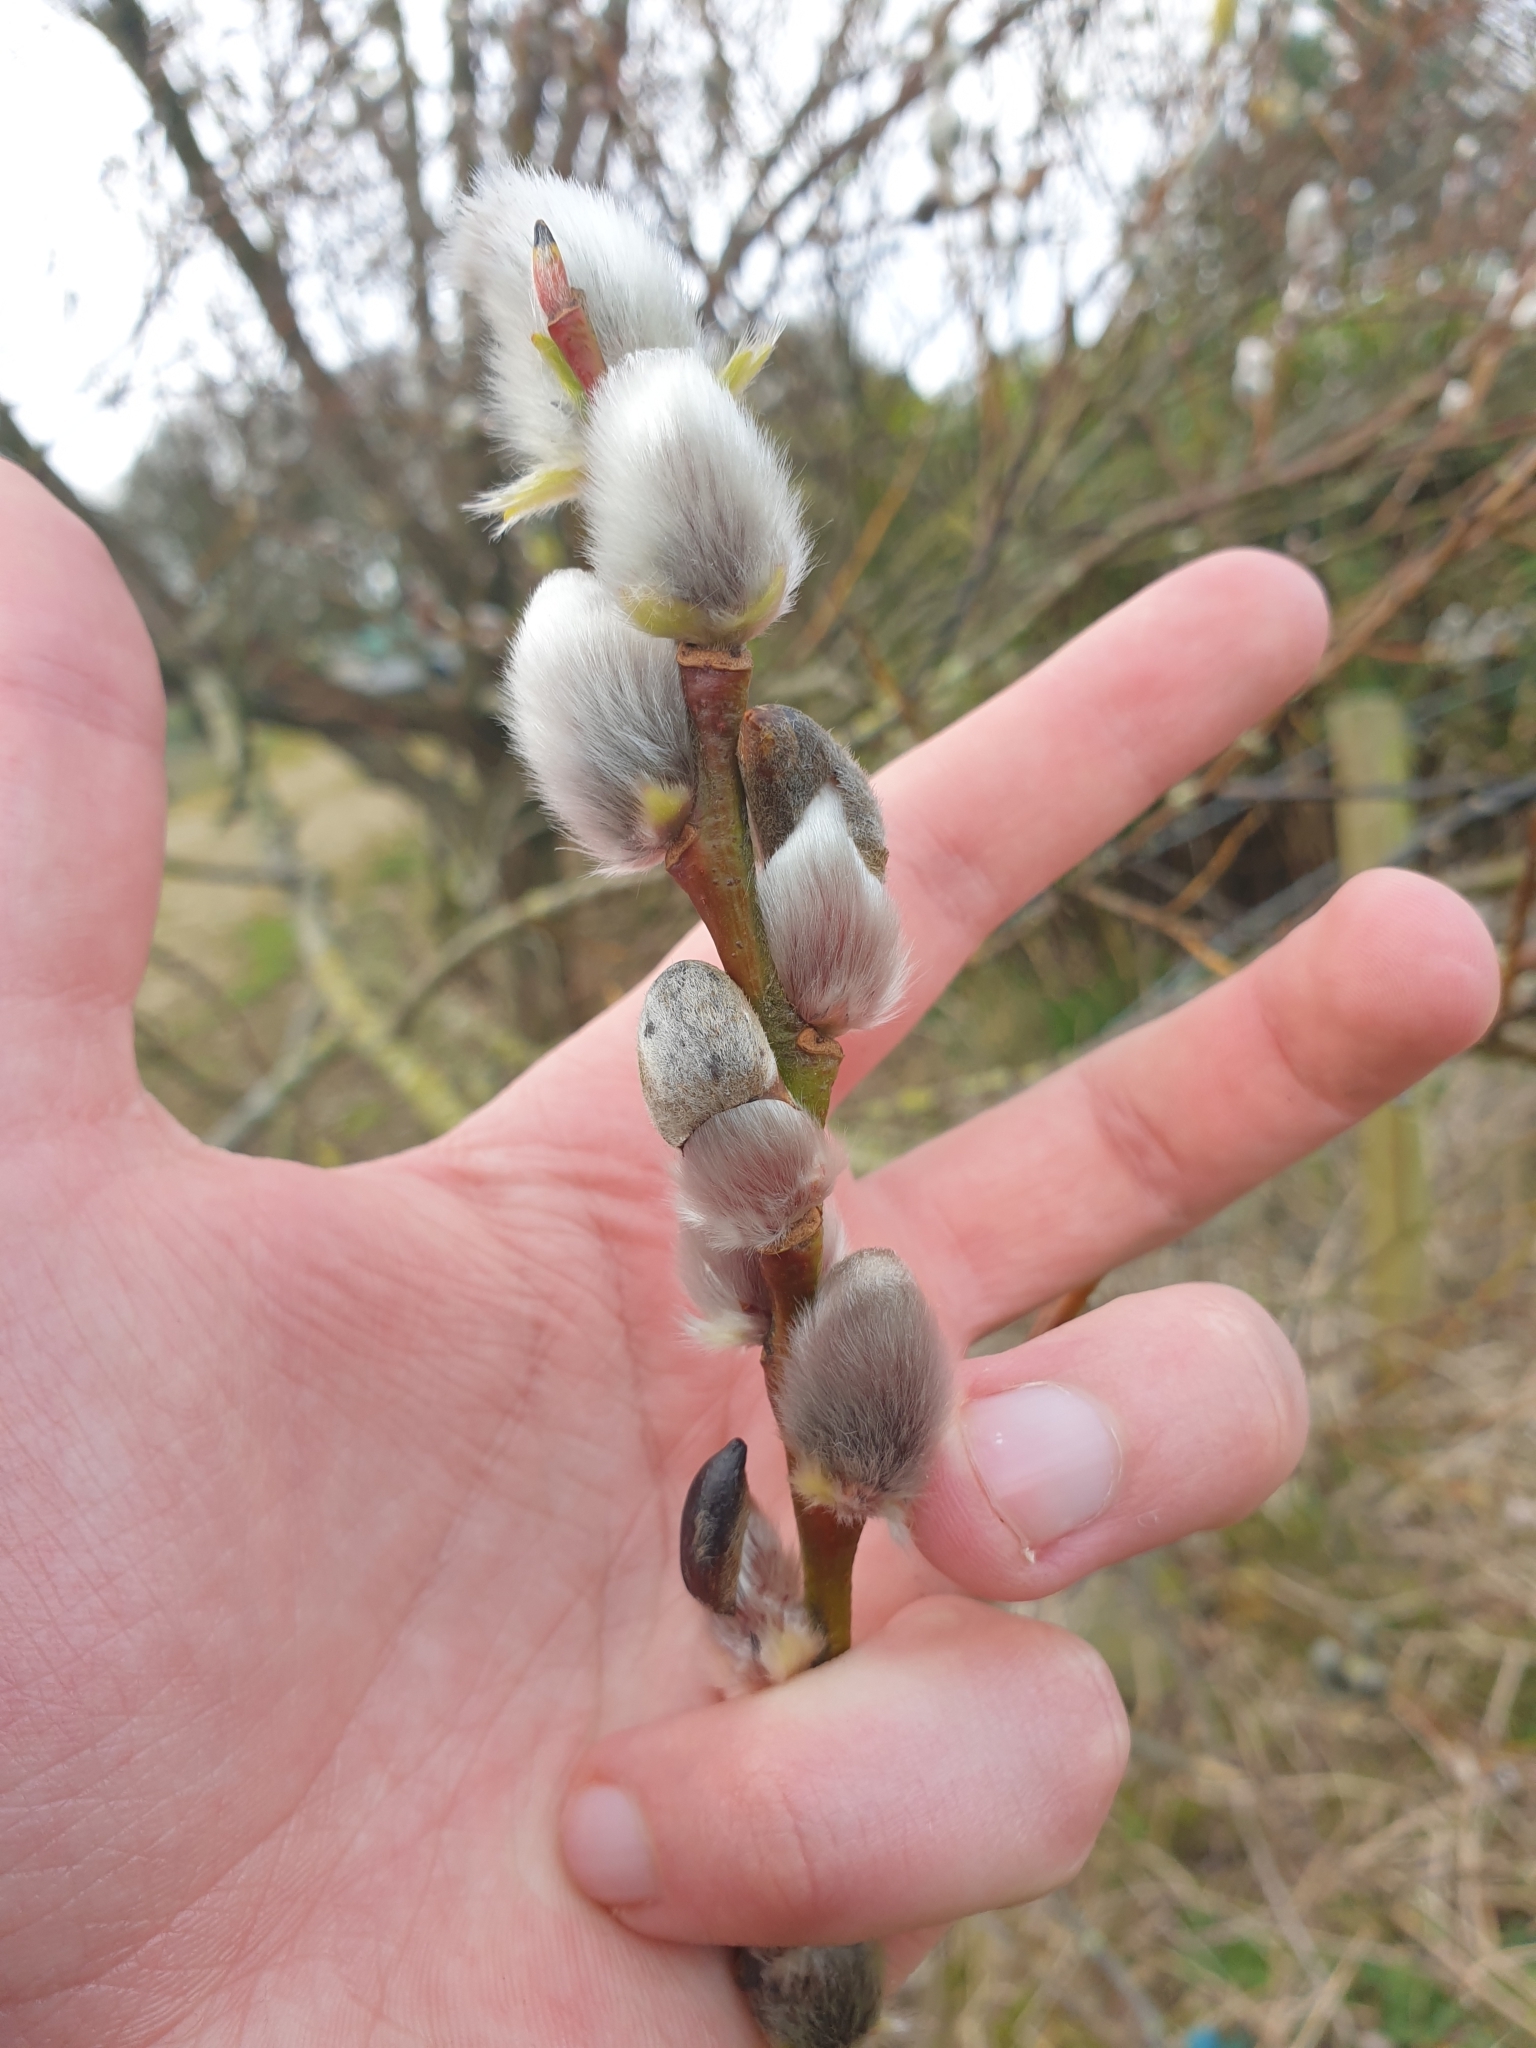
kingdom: Plantae
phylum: Tracheophyta
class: Magnoliopsida
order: Malpighiales
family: Salicaceae
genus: Salix
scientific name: Salix daphnoides
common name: European violet-willow
